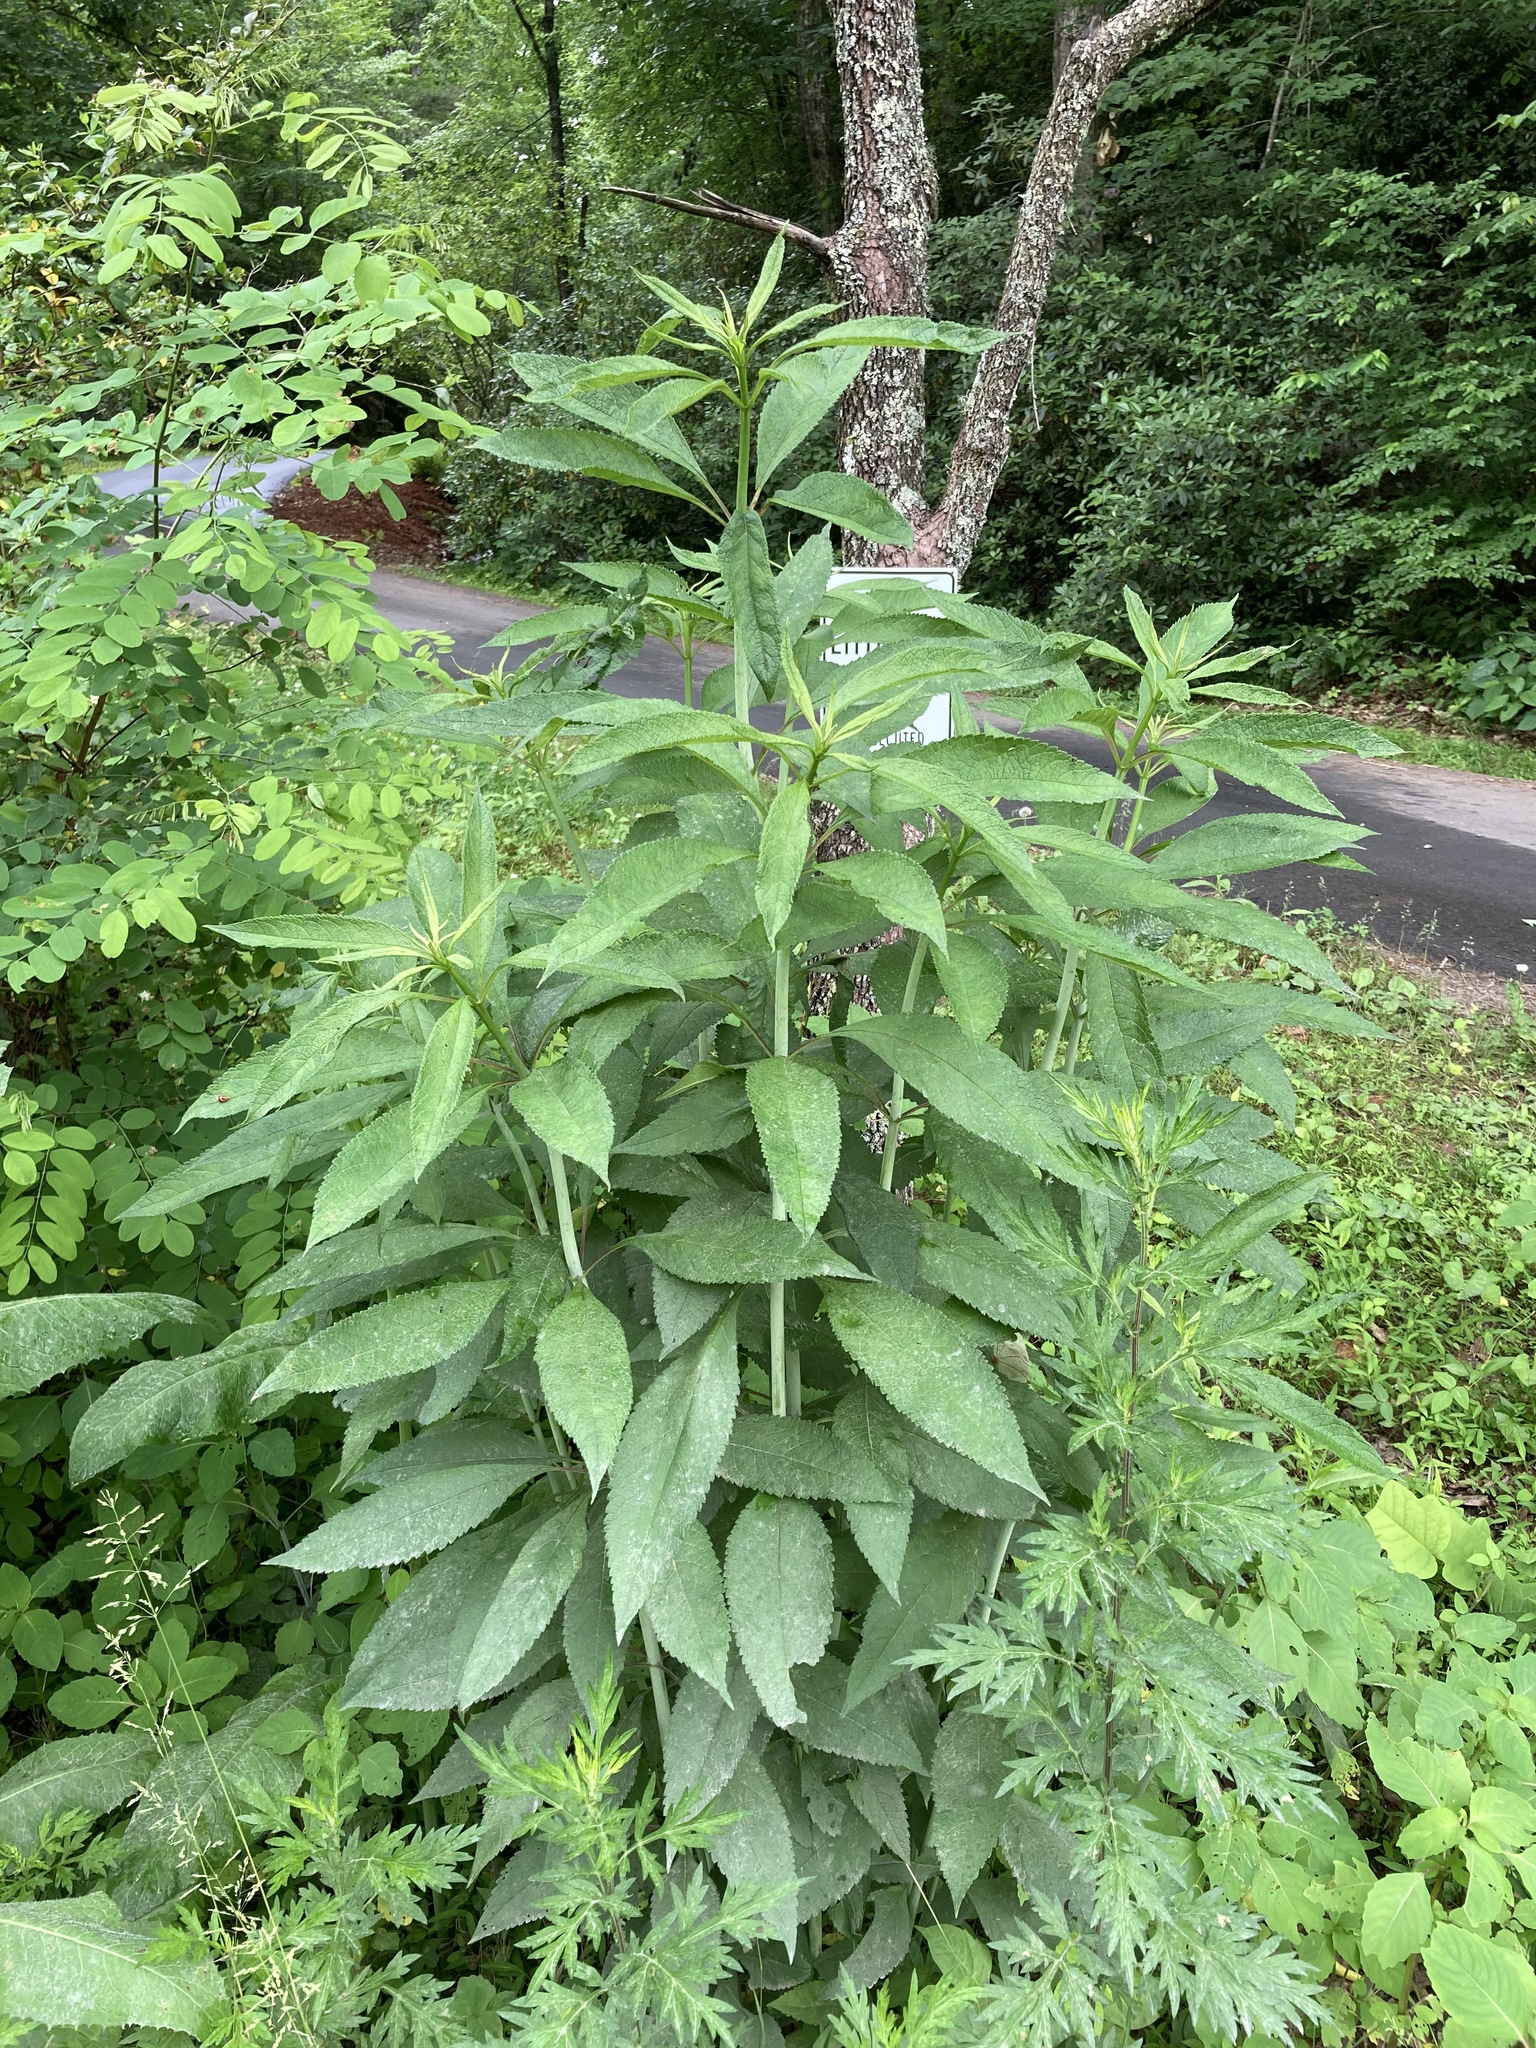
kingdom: Plantae
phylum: Tracheophyta
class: Magnoliopsida
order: Asterales
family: Asteraceae
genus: Verbesina
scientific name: Verbesina alternifolia
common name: Wingstem
